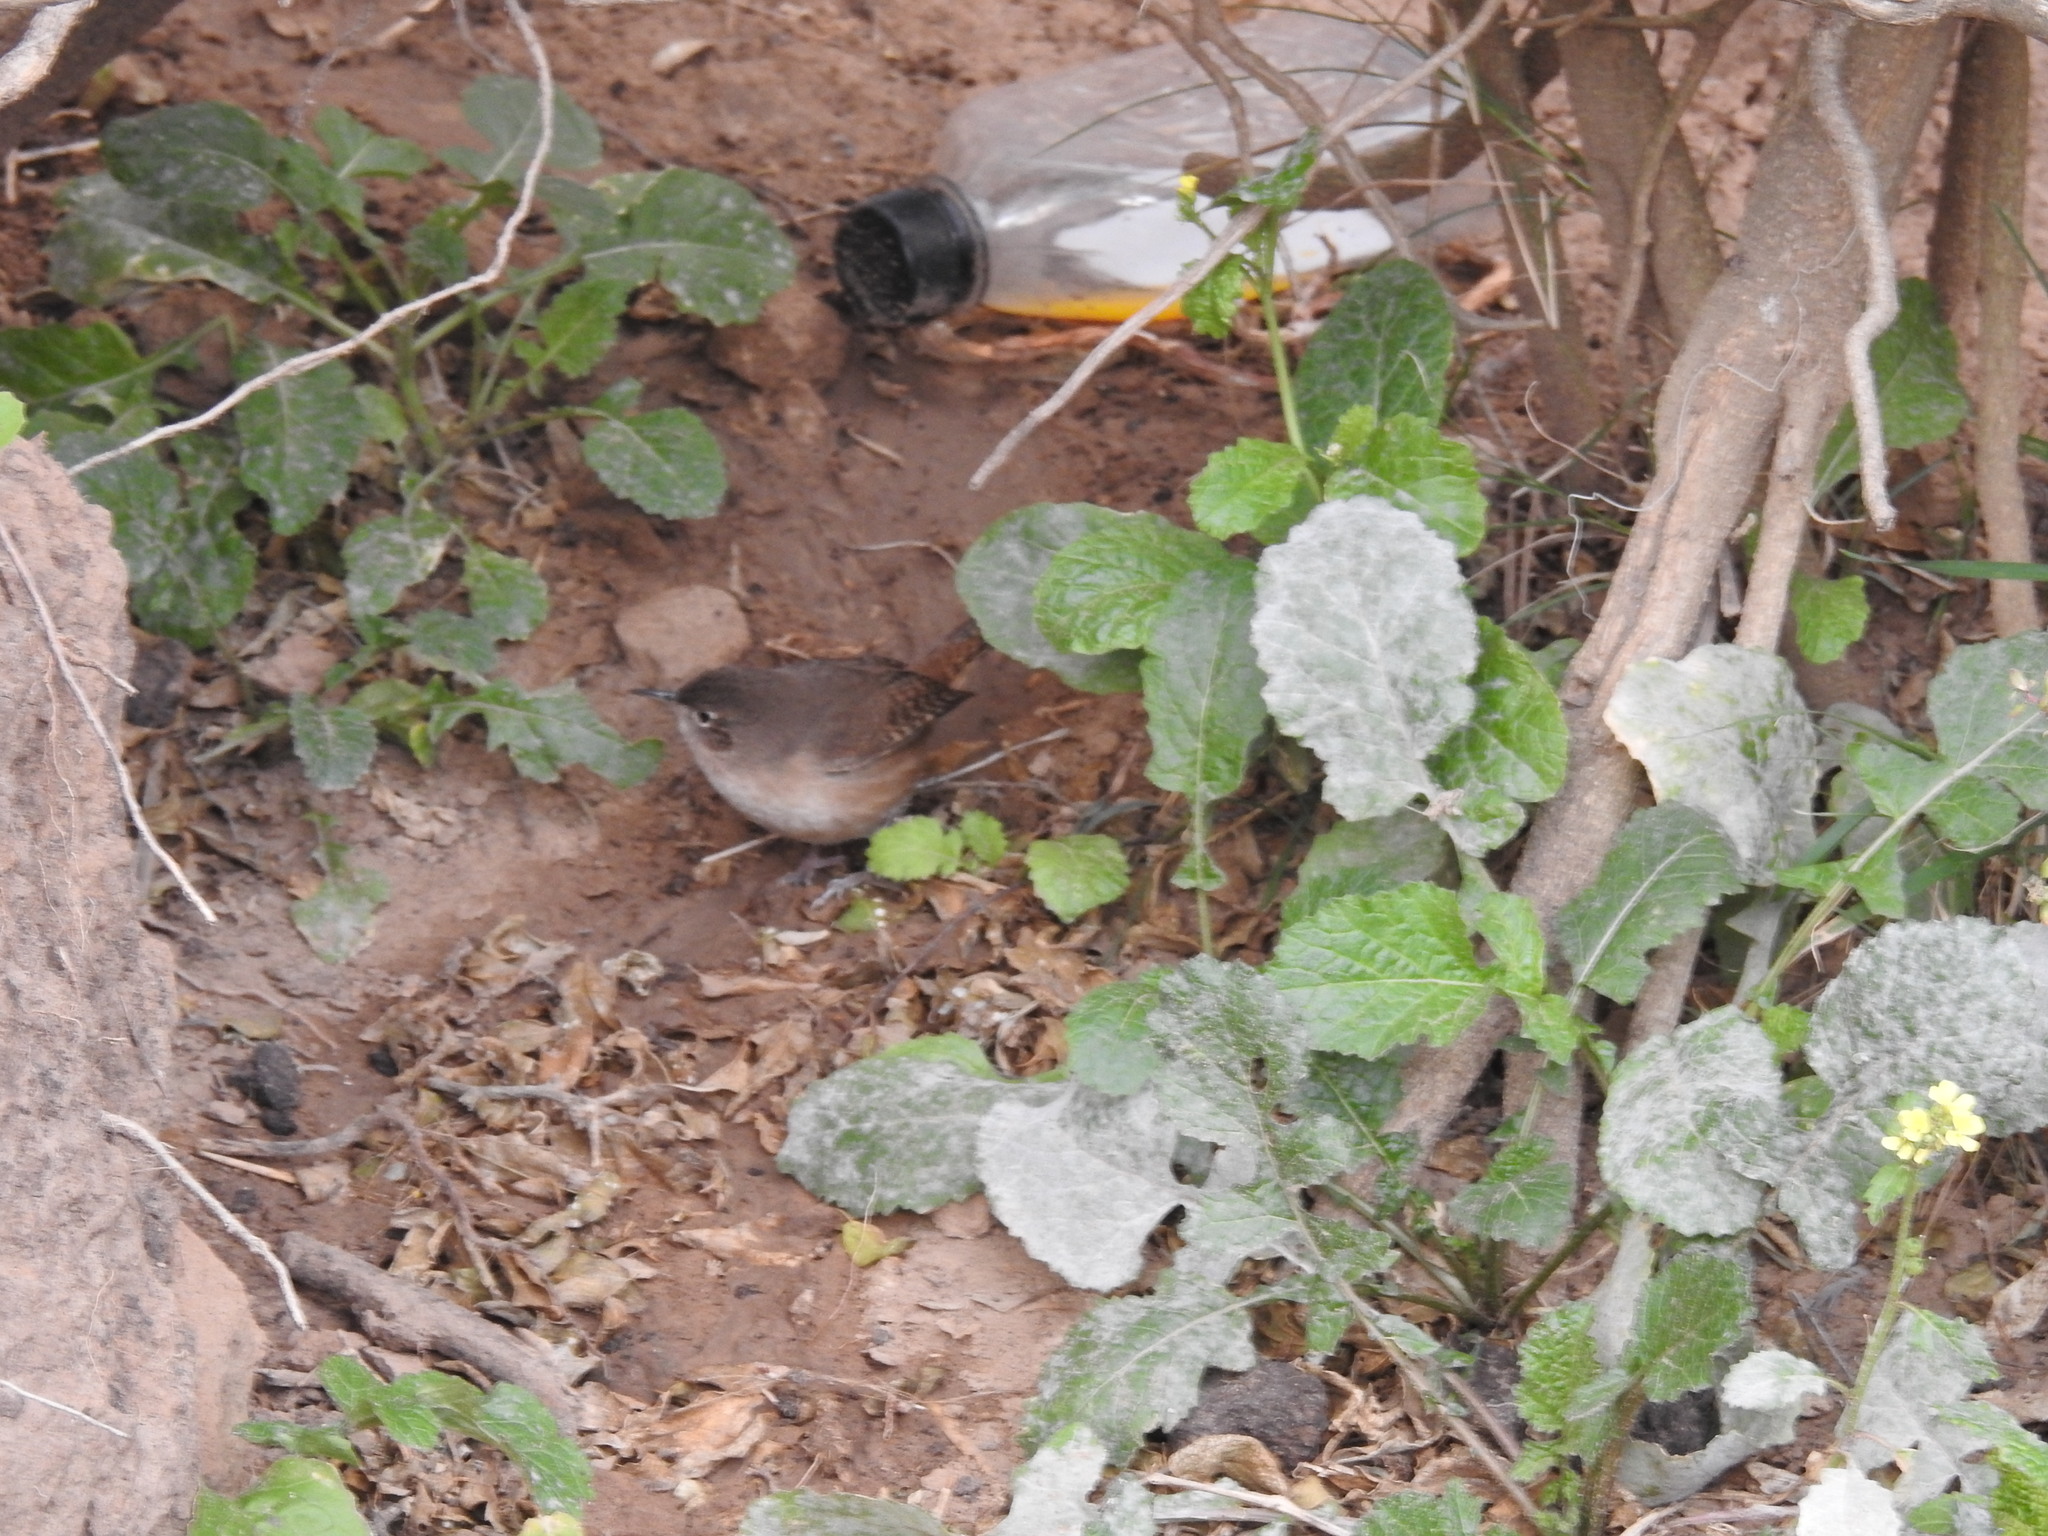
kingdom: Animalia
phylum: Chordata
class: Aves
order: Passeriformes
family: Troglodytidae
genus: Troglodytes
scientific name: Troglodytes aedon
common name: House wren
